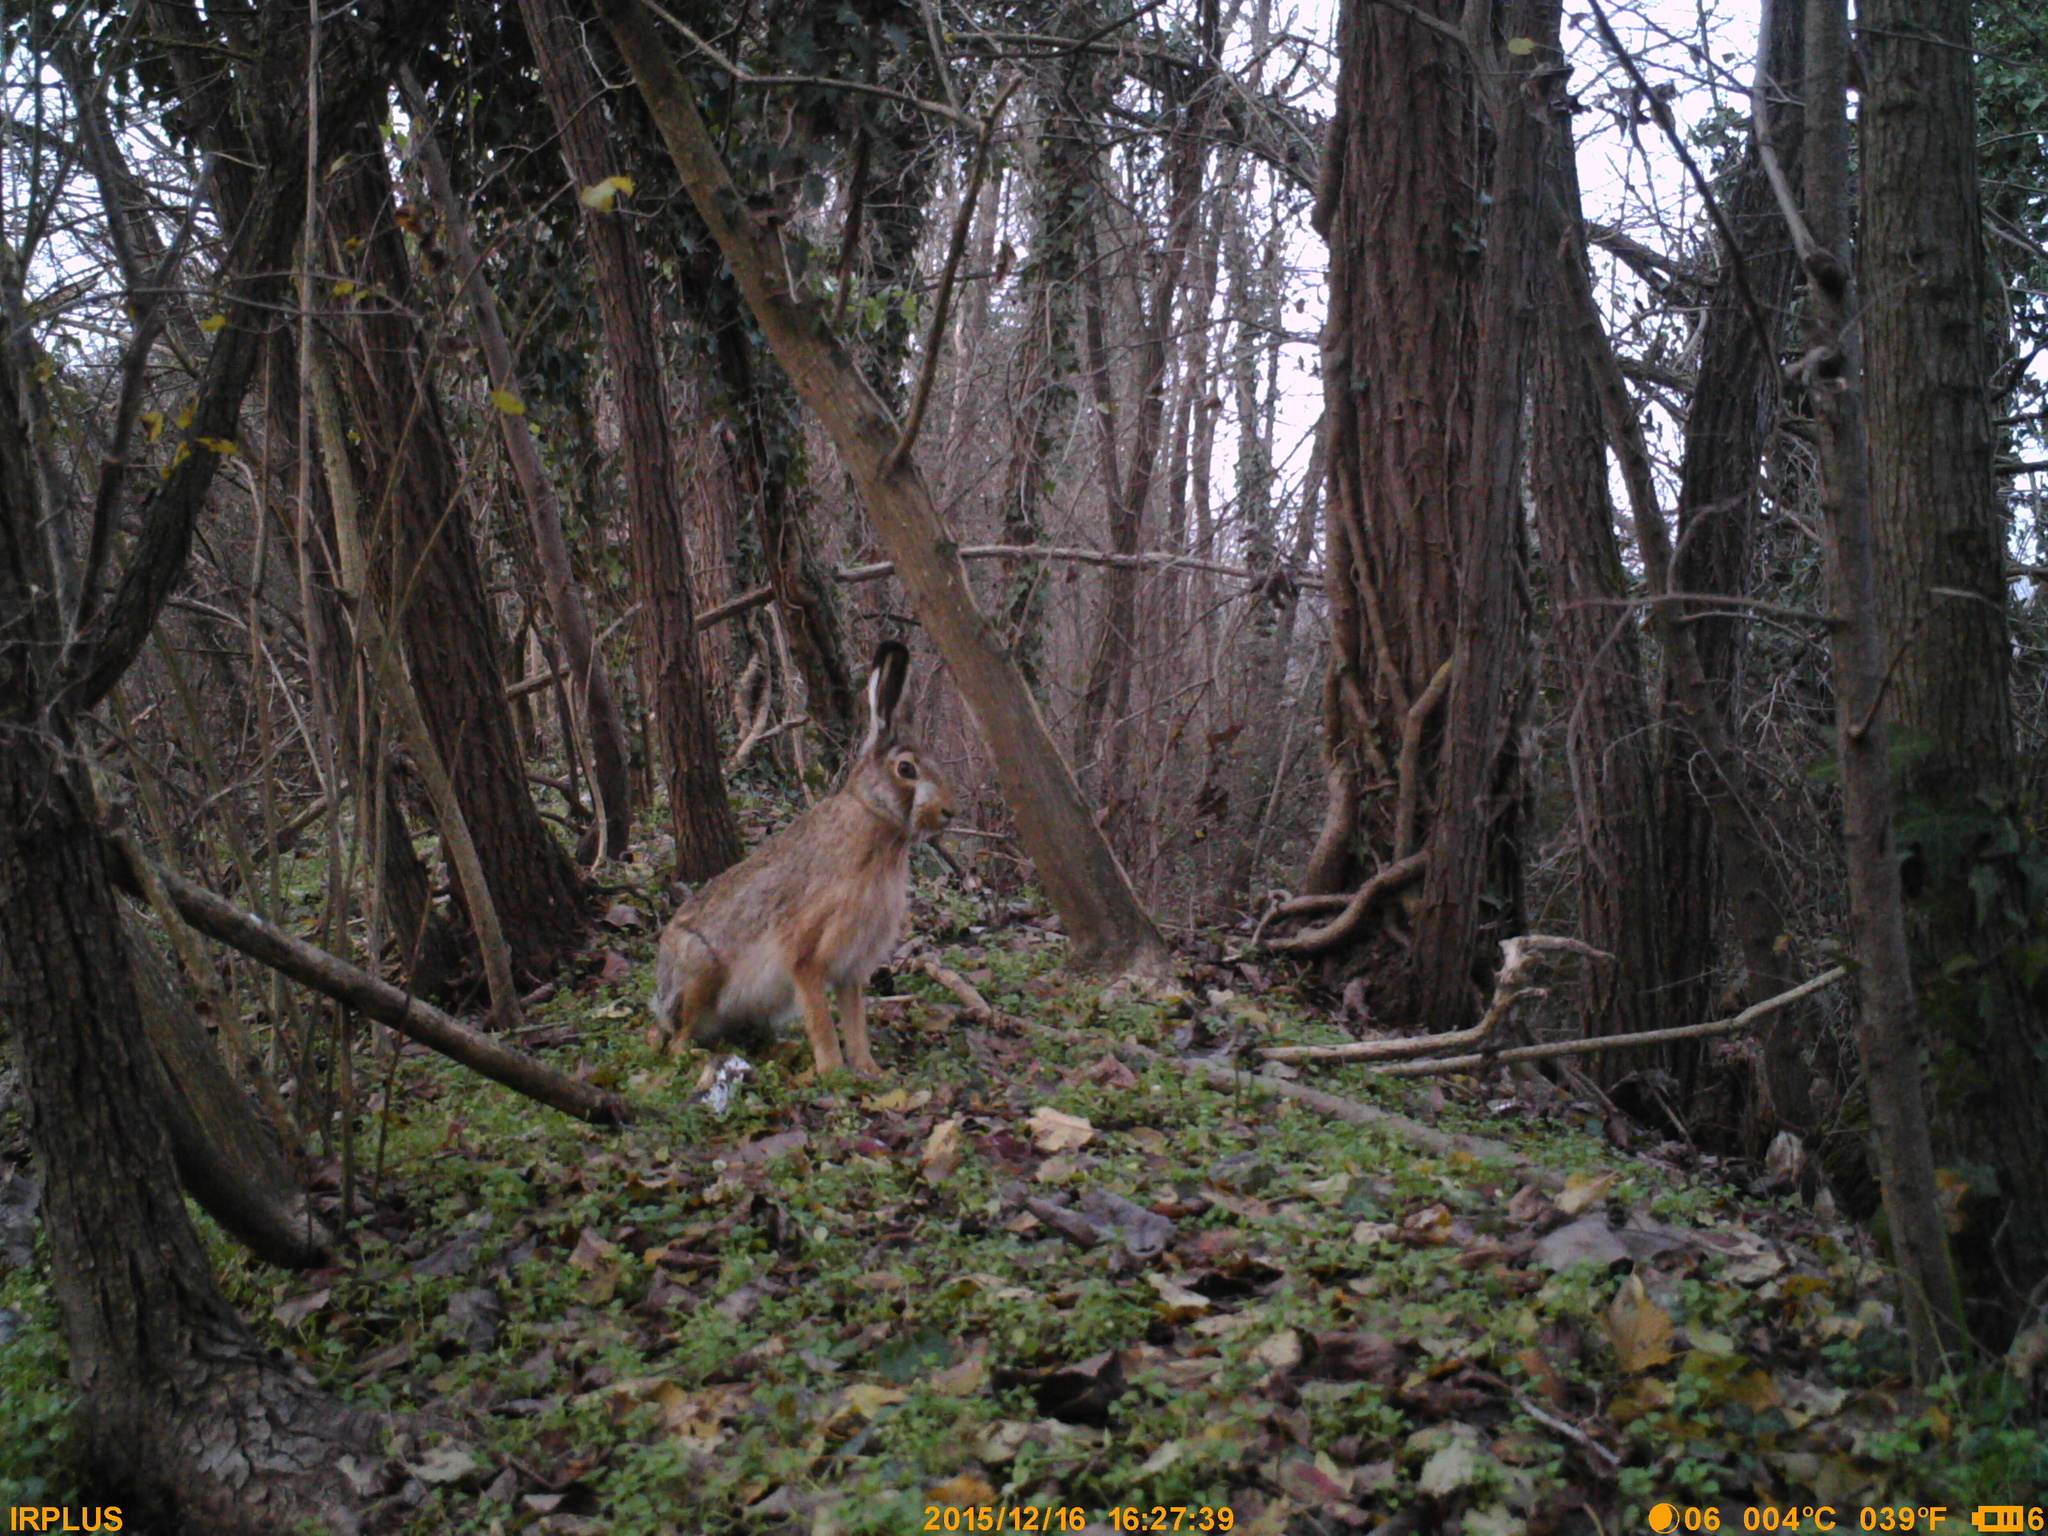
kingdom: Animalia
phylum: Chordata
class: Mammalia
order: Lagomorpha
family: Leporidae
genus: Lepus
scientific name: Lepus europaeus
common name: European hare
